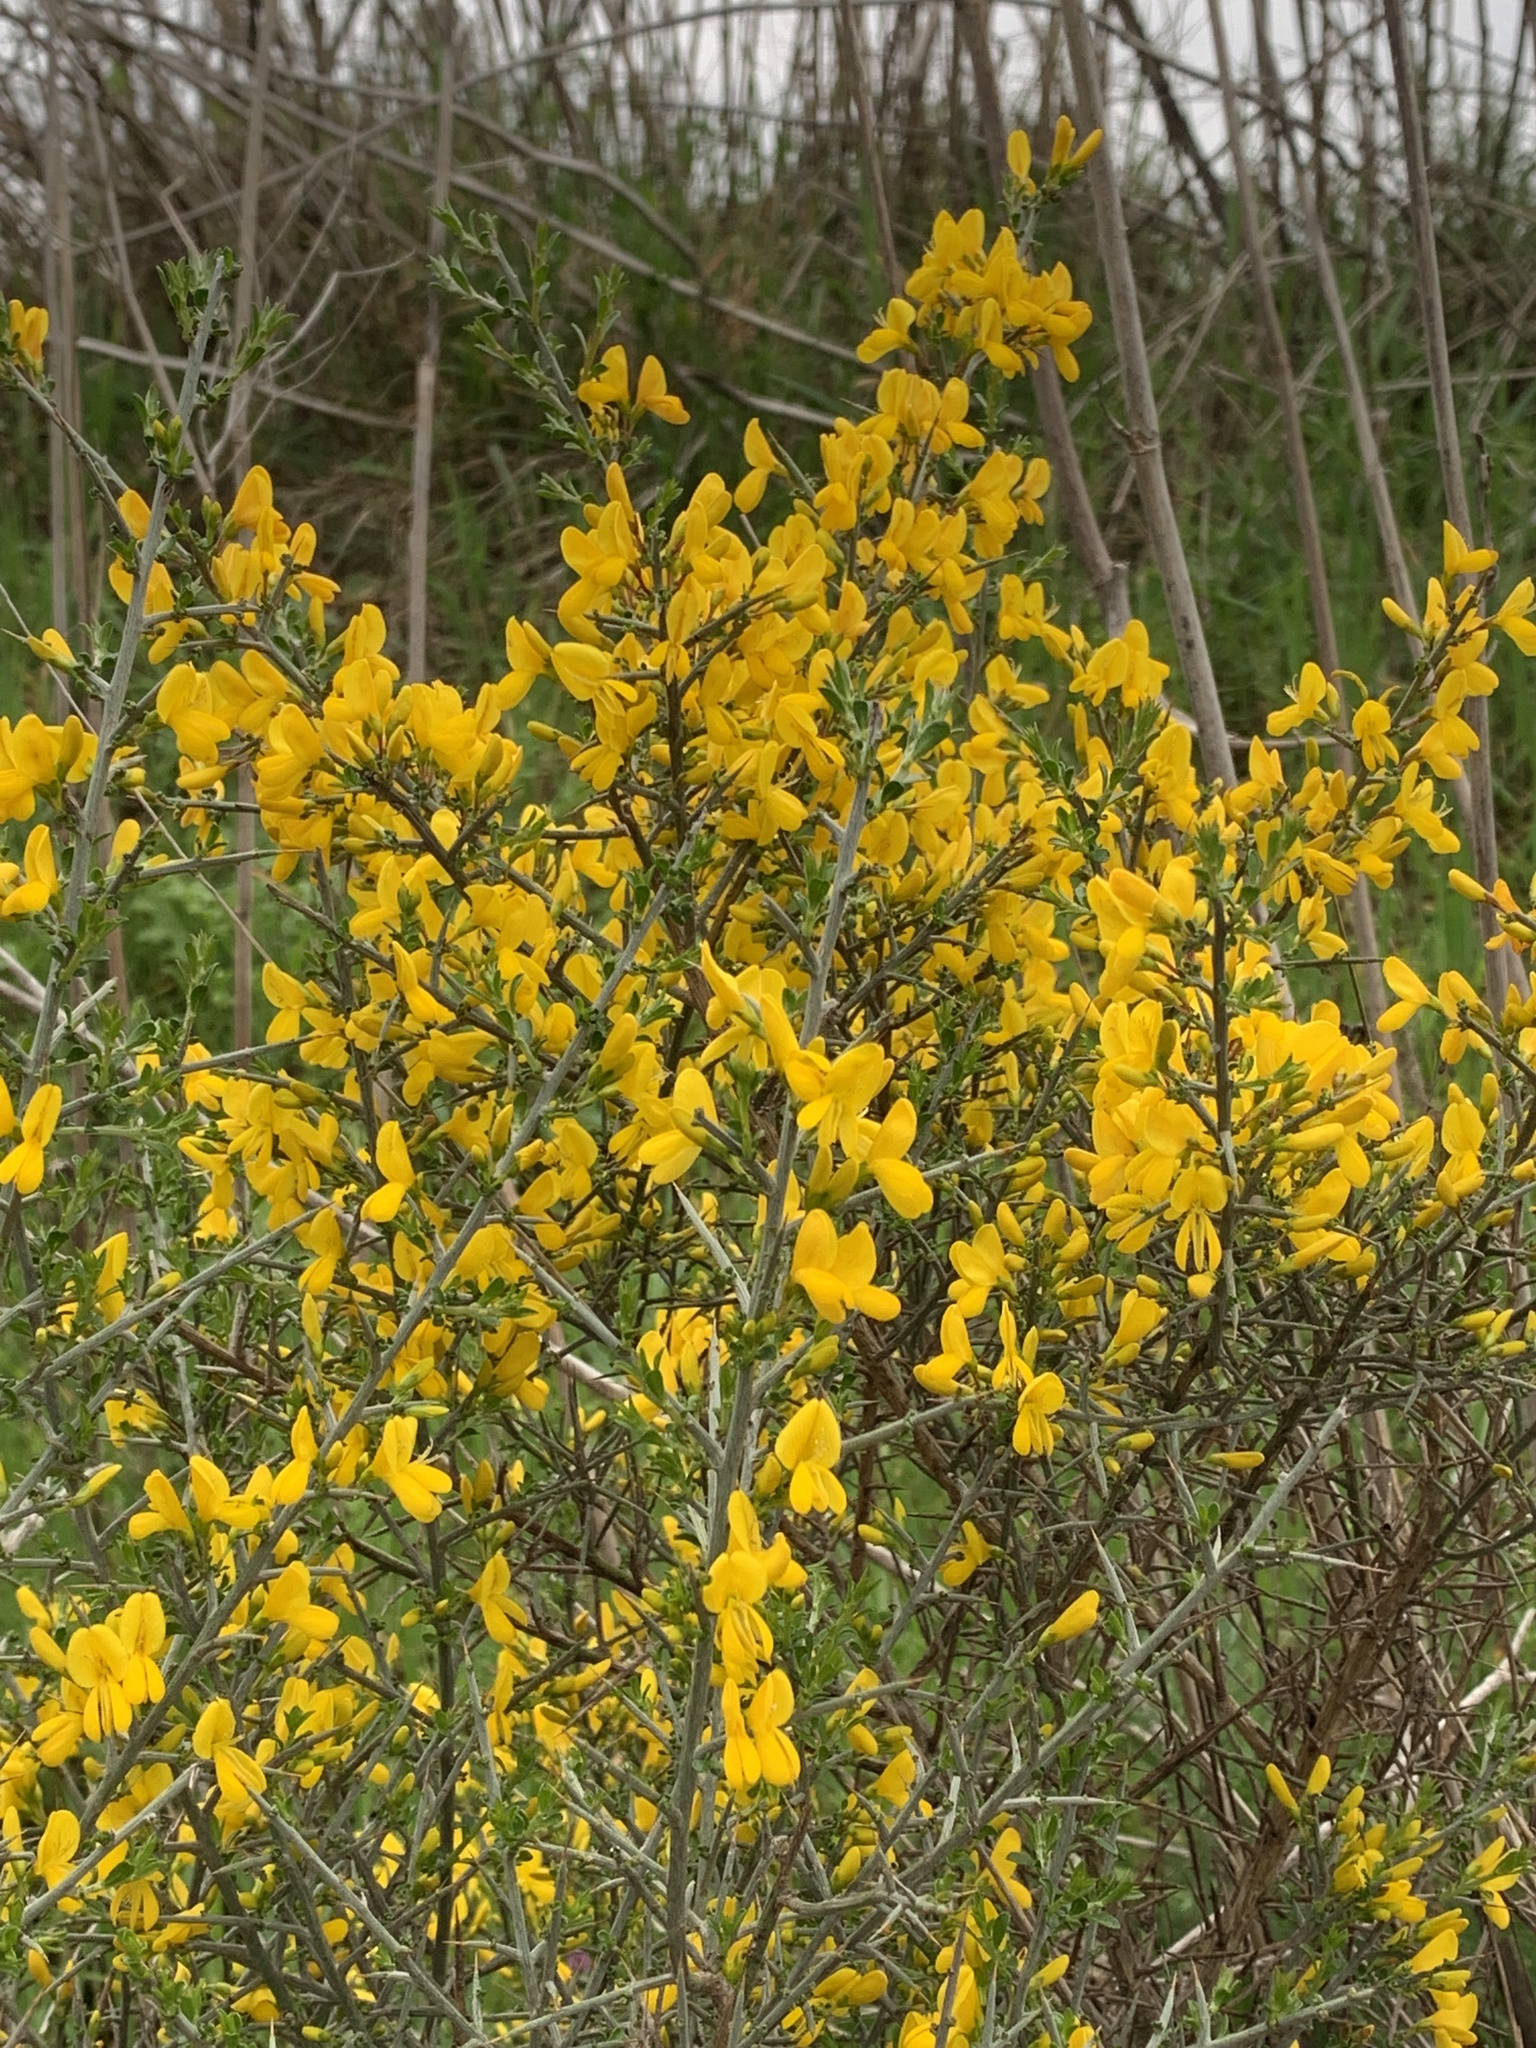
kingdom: Plantae
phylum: Tracheophyta
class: Magnoliopsida
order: Fabales
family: Fabaceae
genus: Genista
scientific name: Genista scorpius
